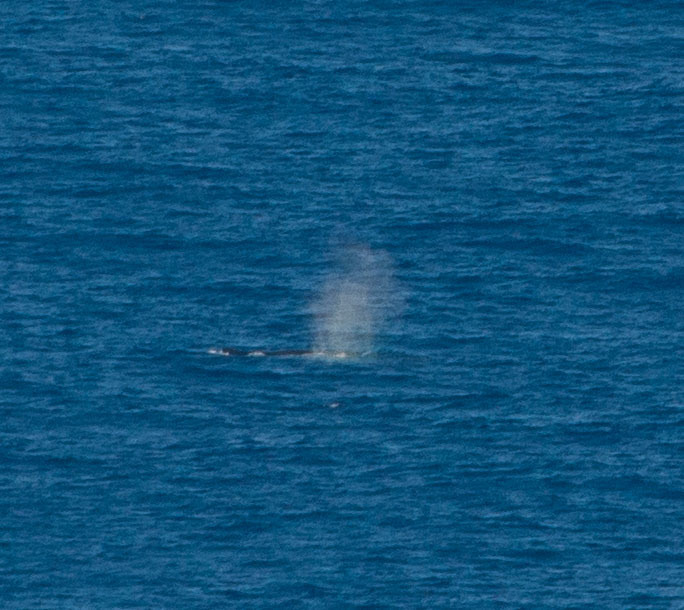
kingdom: Animalia
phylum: Chordata
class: Mammalia
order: Cetacea
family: Balaenopteridae
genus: Megaptera
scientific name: Megaptera novaeangliae
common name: Humpback whale
